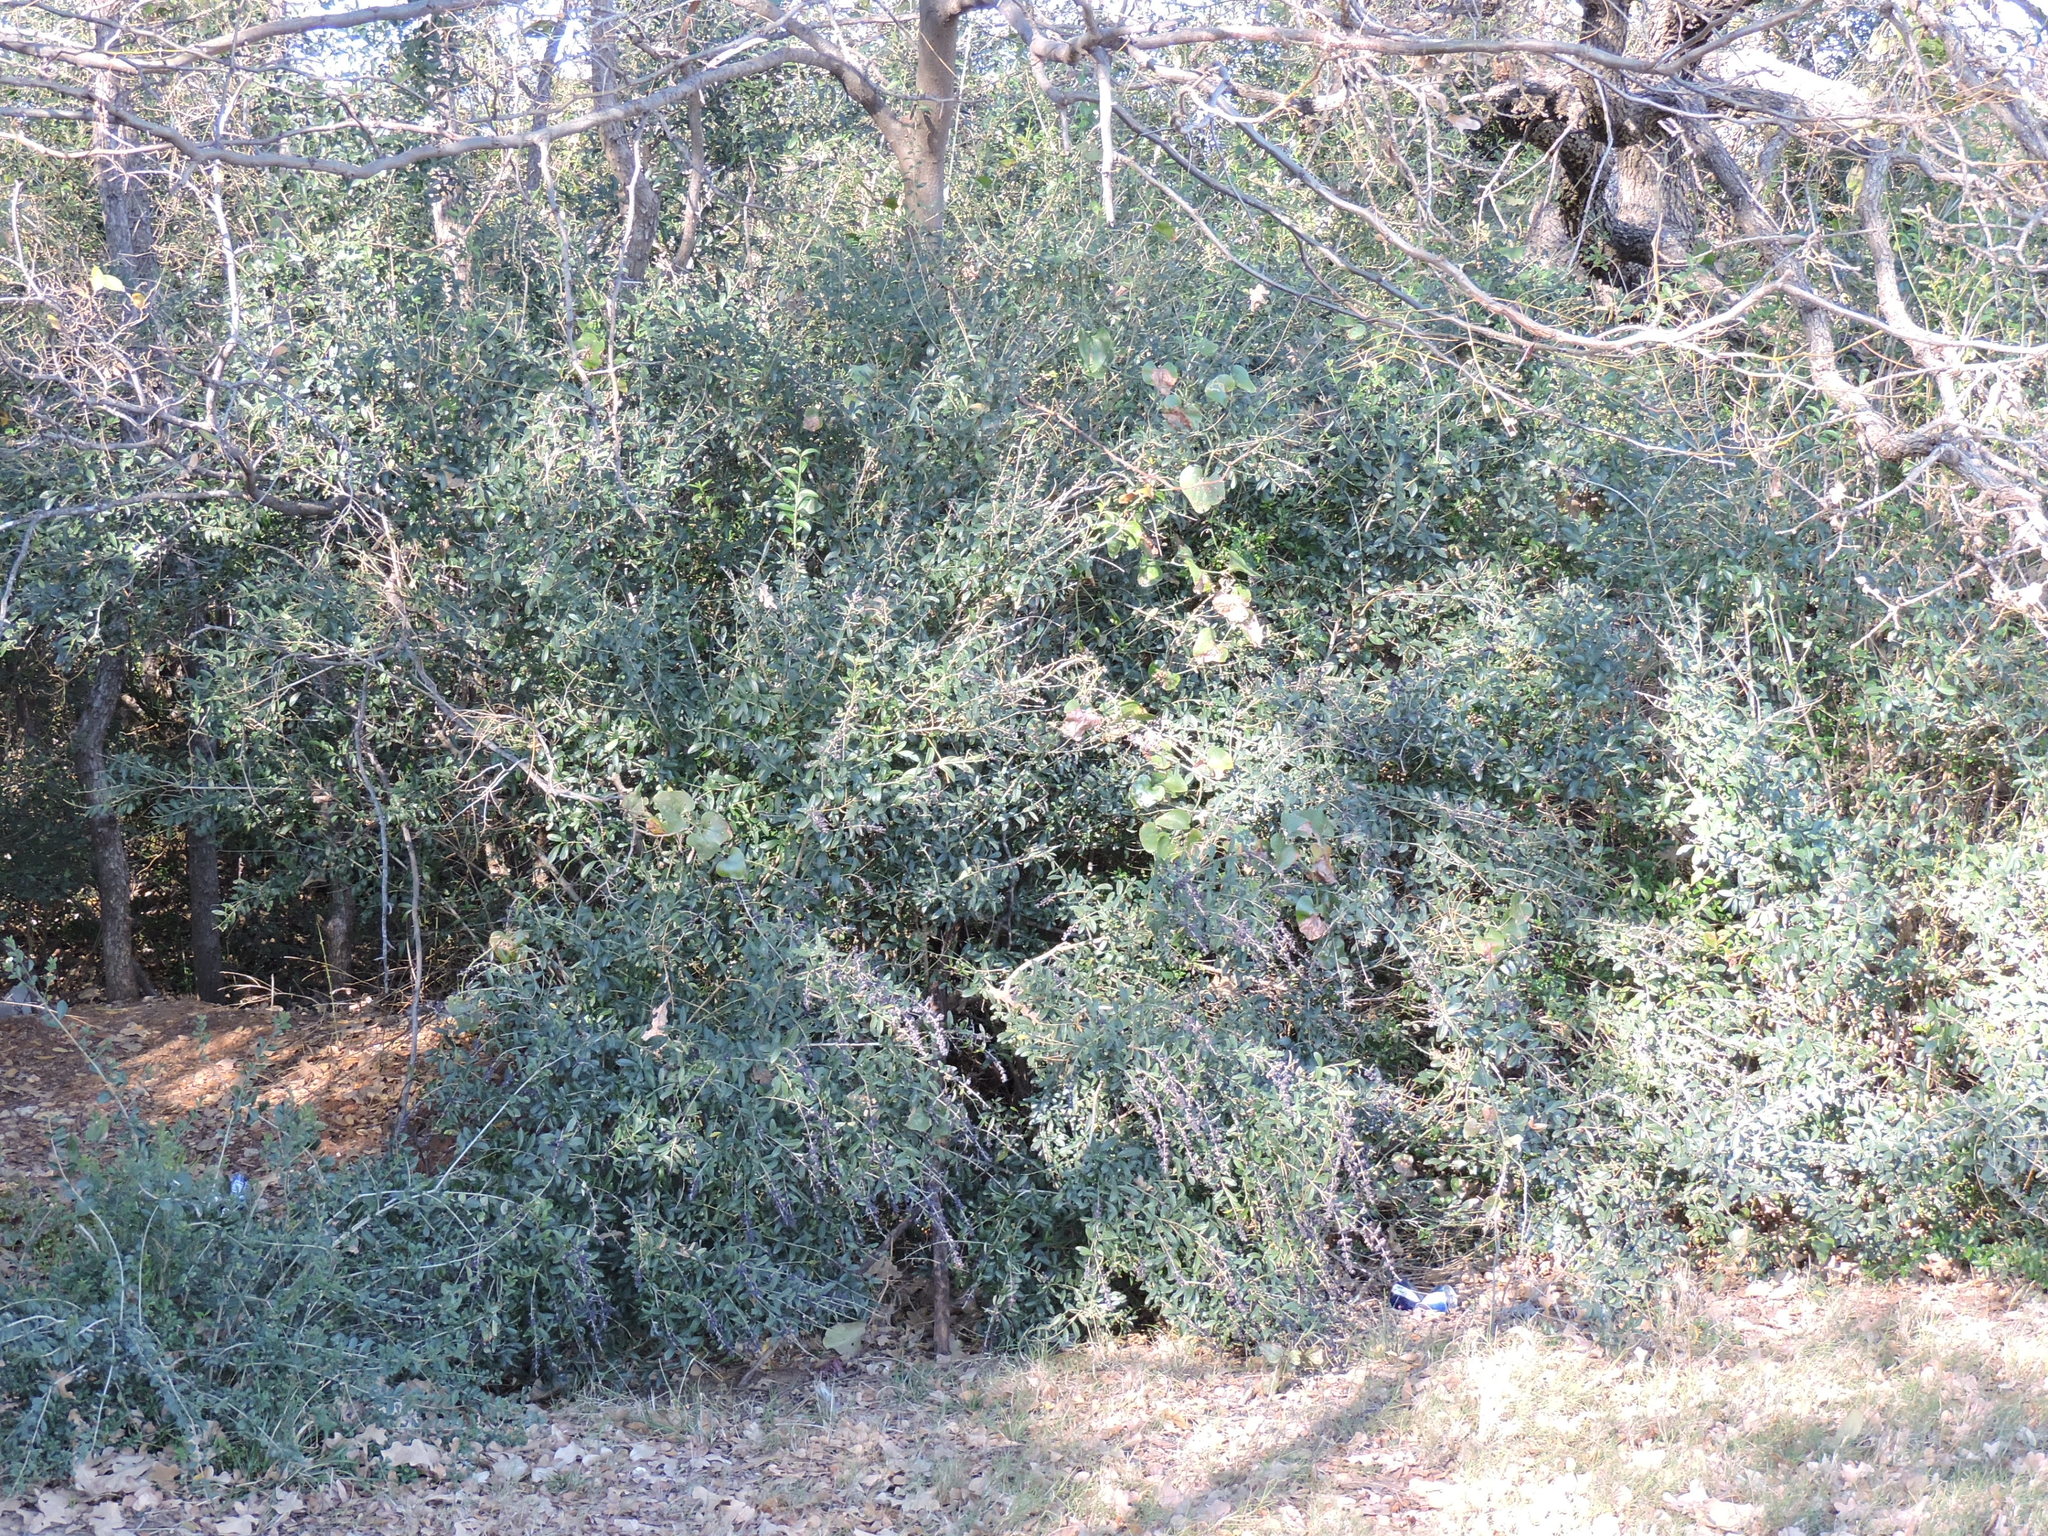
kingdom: Plantae
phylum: Tracheophyta
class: Magnoliopsida
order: Lamiales
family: Oleaceae
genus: Ligustrum
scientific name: Ligustrum quihoui
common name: Waxyleaf privet
